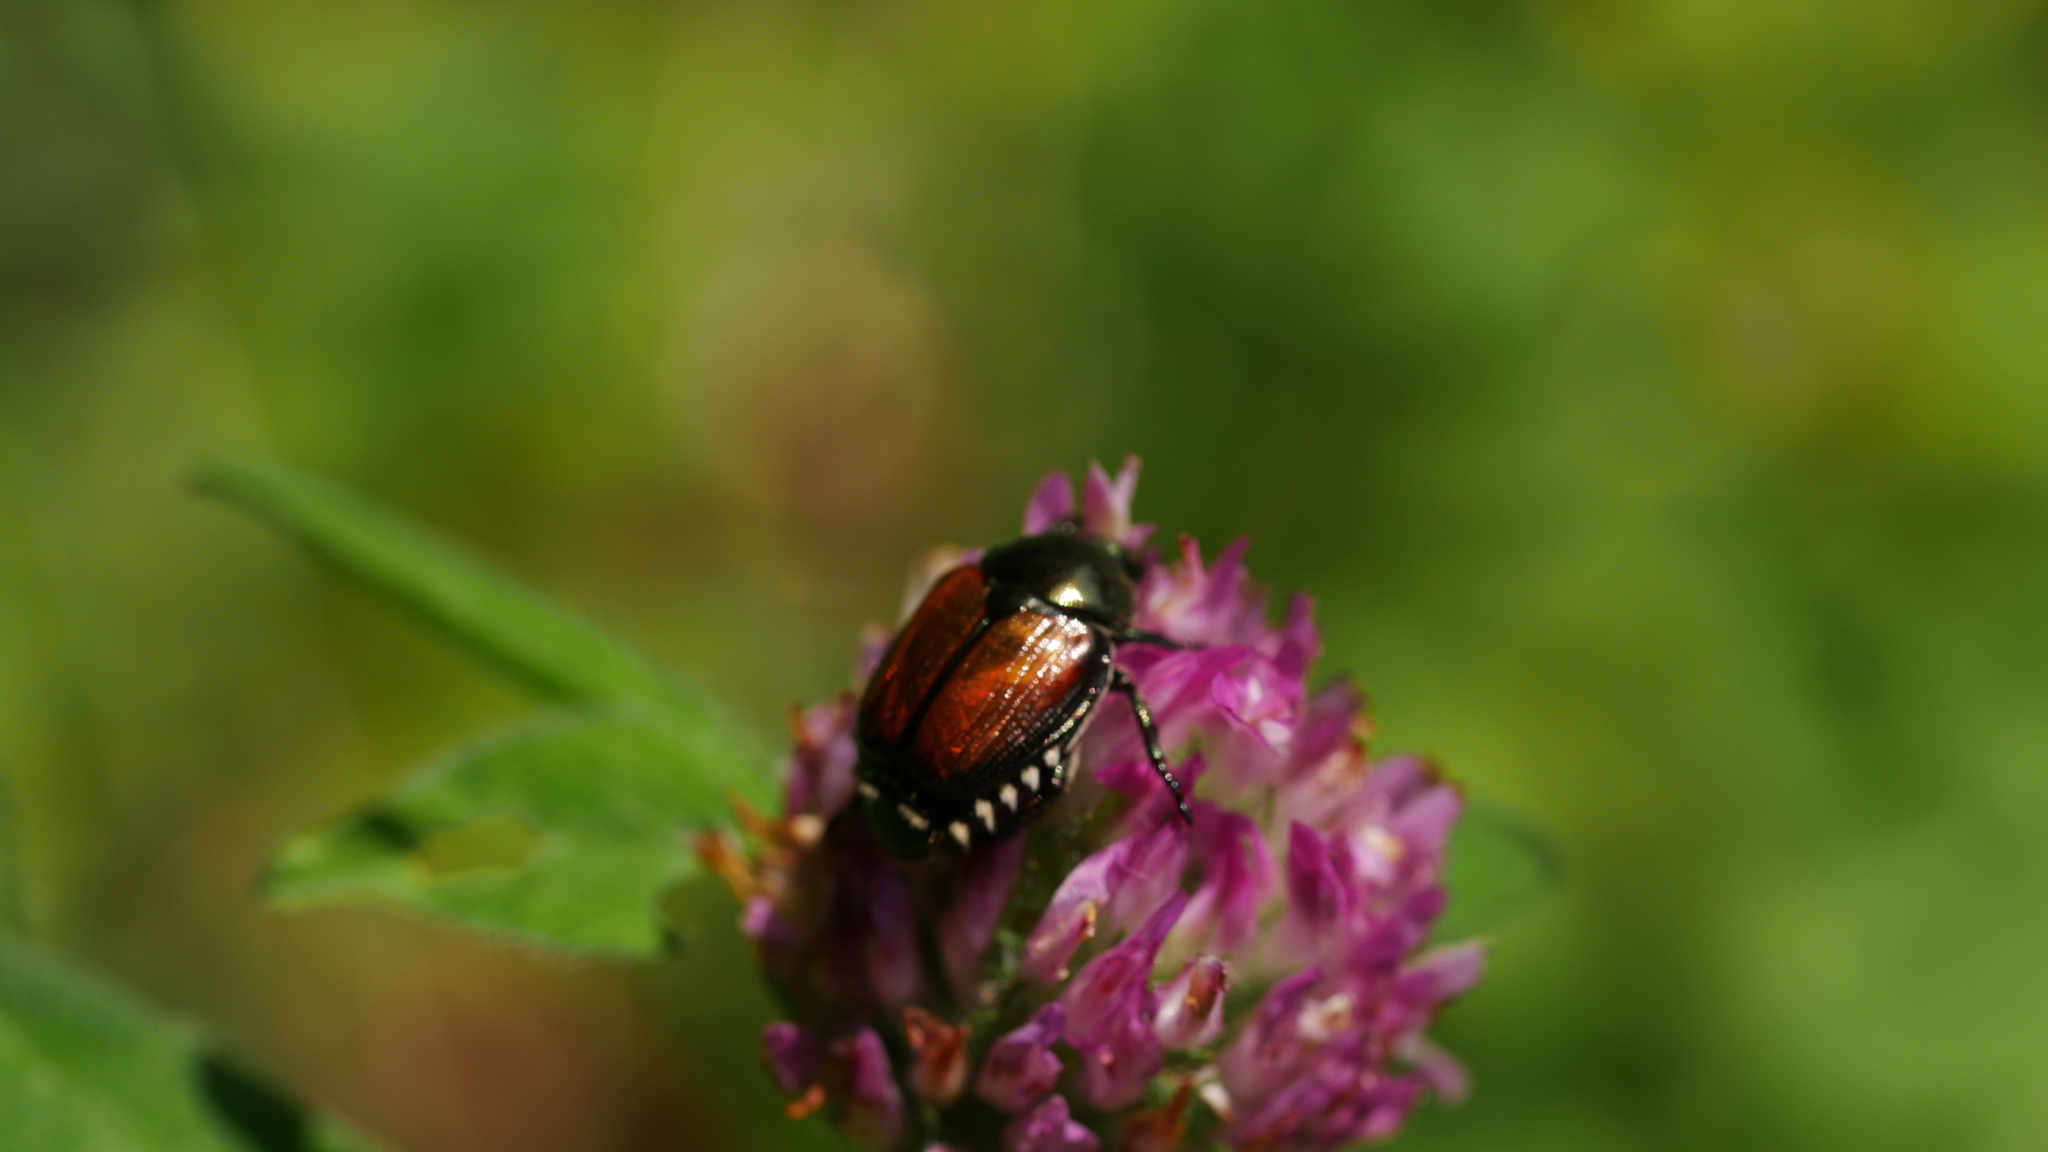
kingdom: Animalia
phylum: Arthropoda
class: Insecta
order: Coleoptera
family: Scarabaeidae
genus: Popillia
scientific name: Popillia japonica
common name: Japanese beetle
